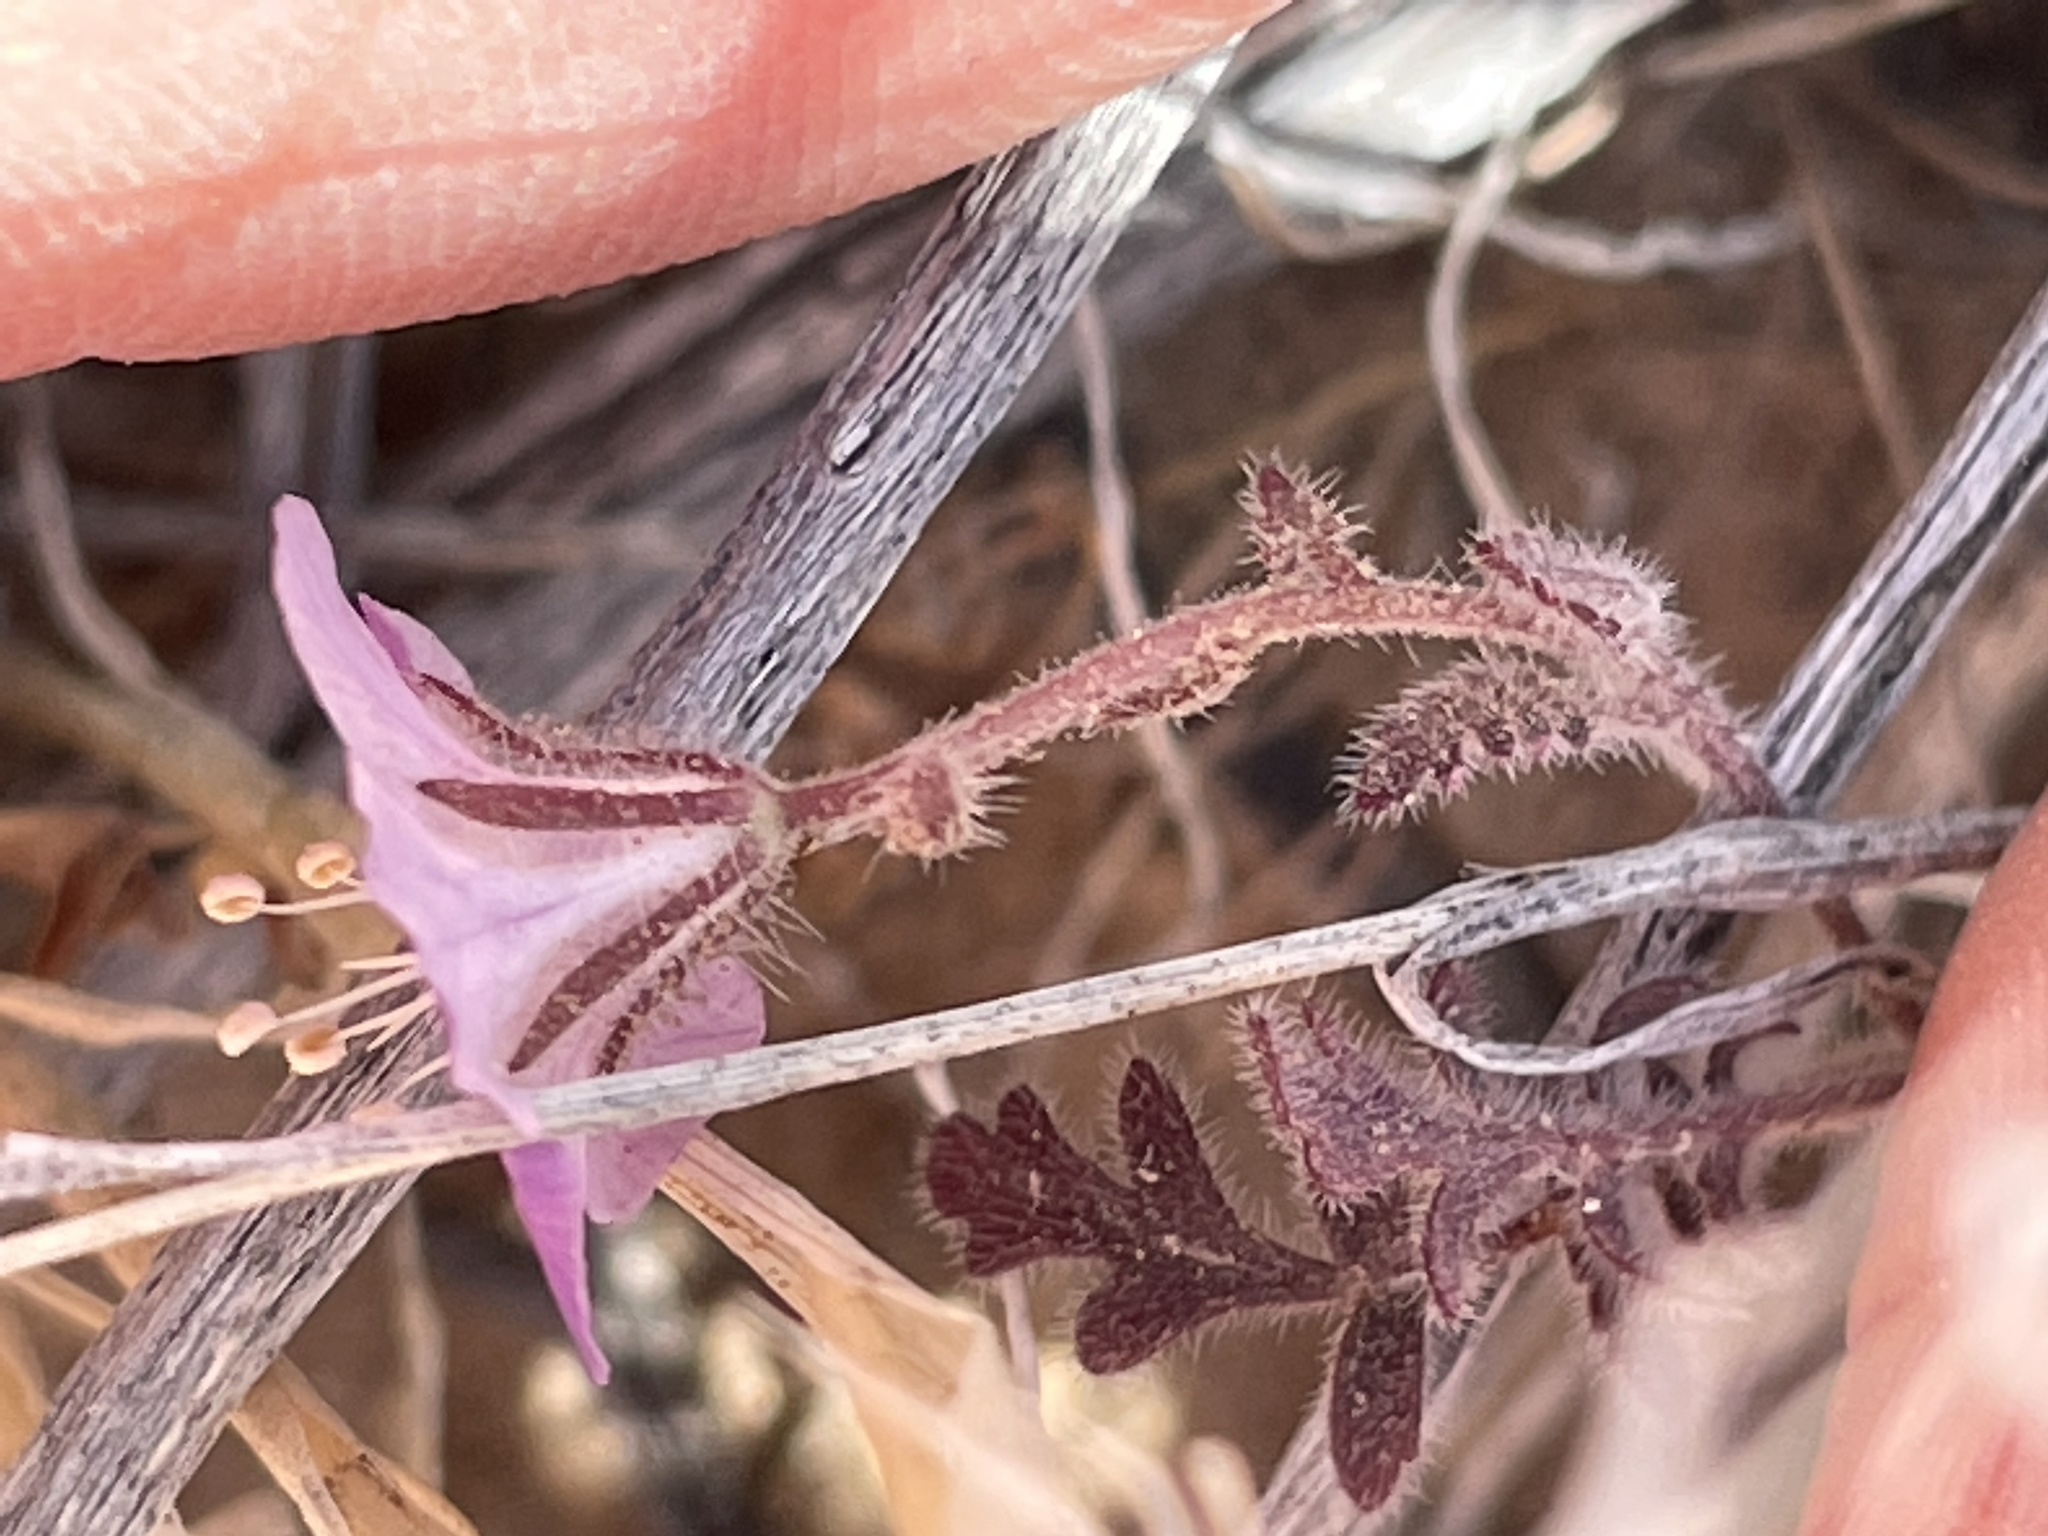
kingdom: Plantae
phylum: Tracheophyta
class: Magnoliopsida
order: Boraginales
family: Hydrophyllaceae
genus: Phacelia
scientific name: Phacelia vallis-mortae
